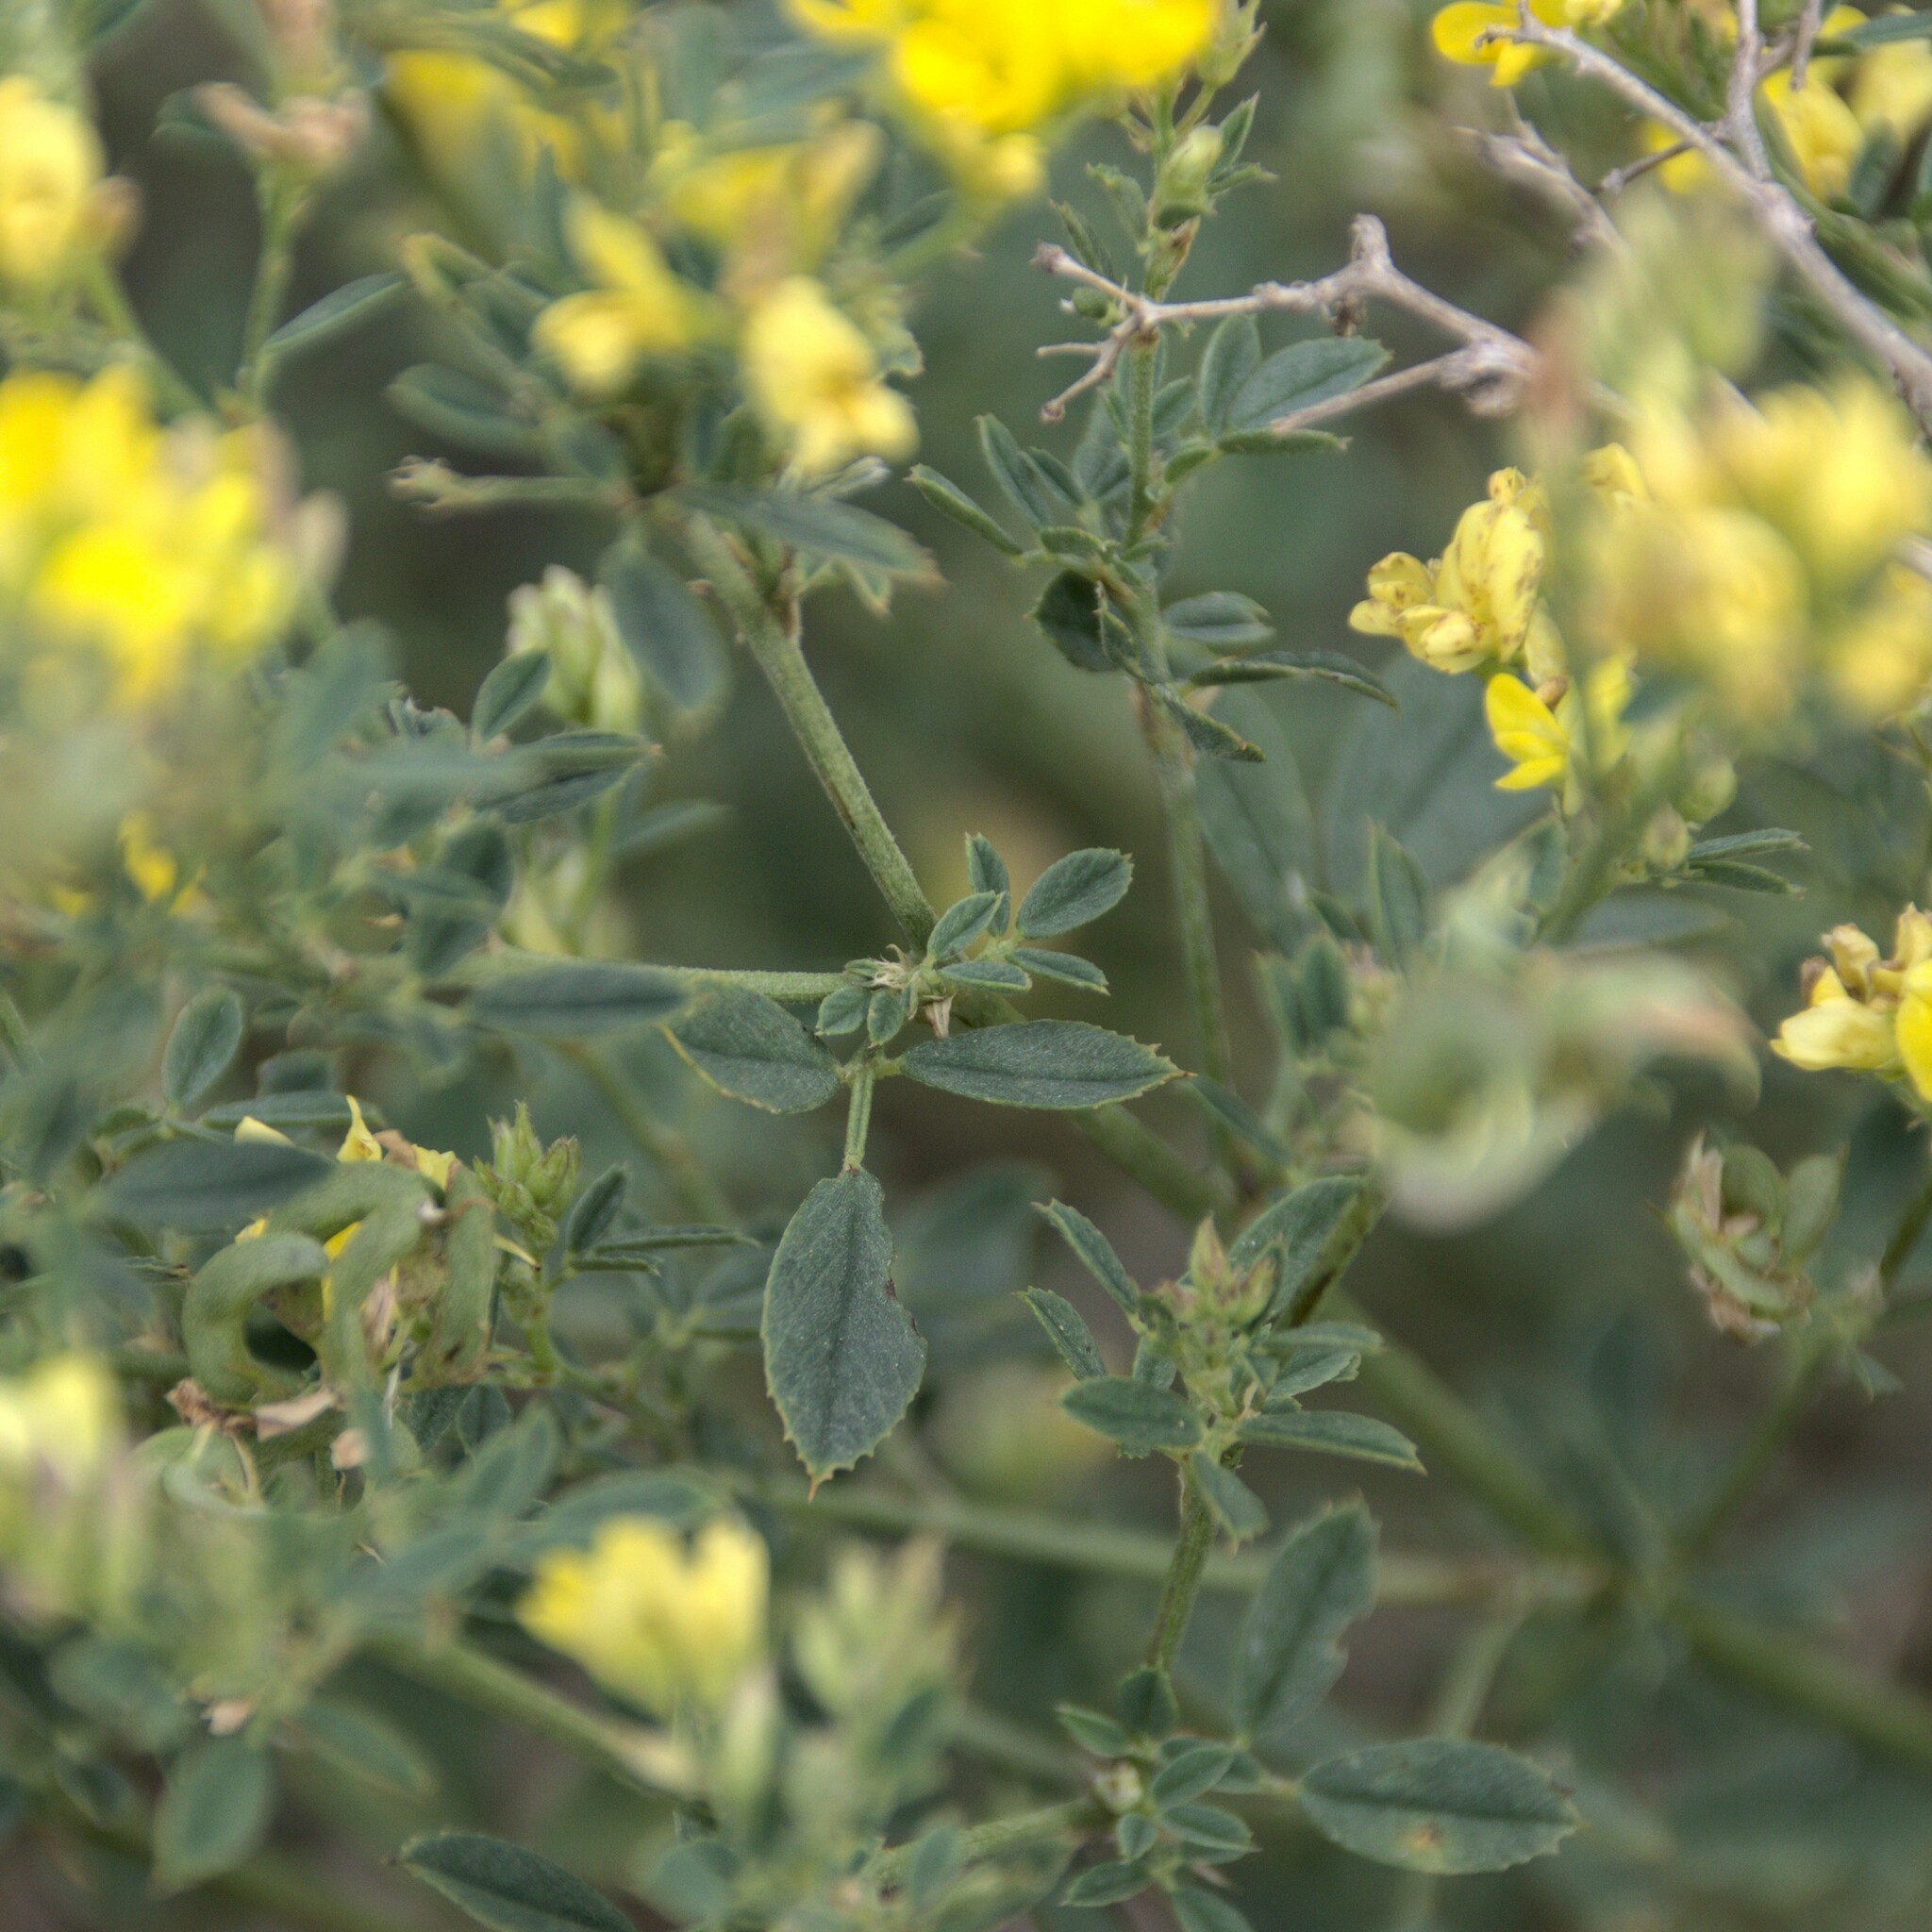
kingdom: Plantae
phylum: Tracheophyta
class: Magnoliopsida
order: Fabales
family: Fabaceae
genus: Medicago
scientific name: Medicago falcata
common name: Sickle medick
